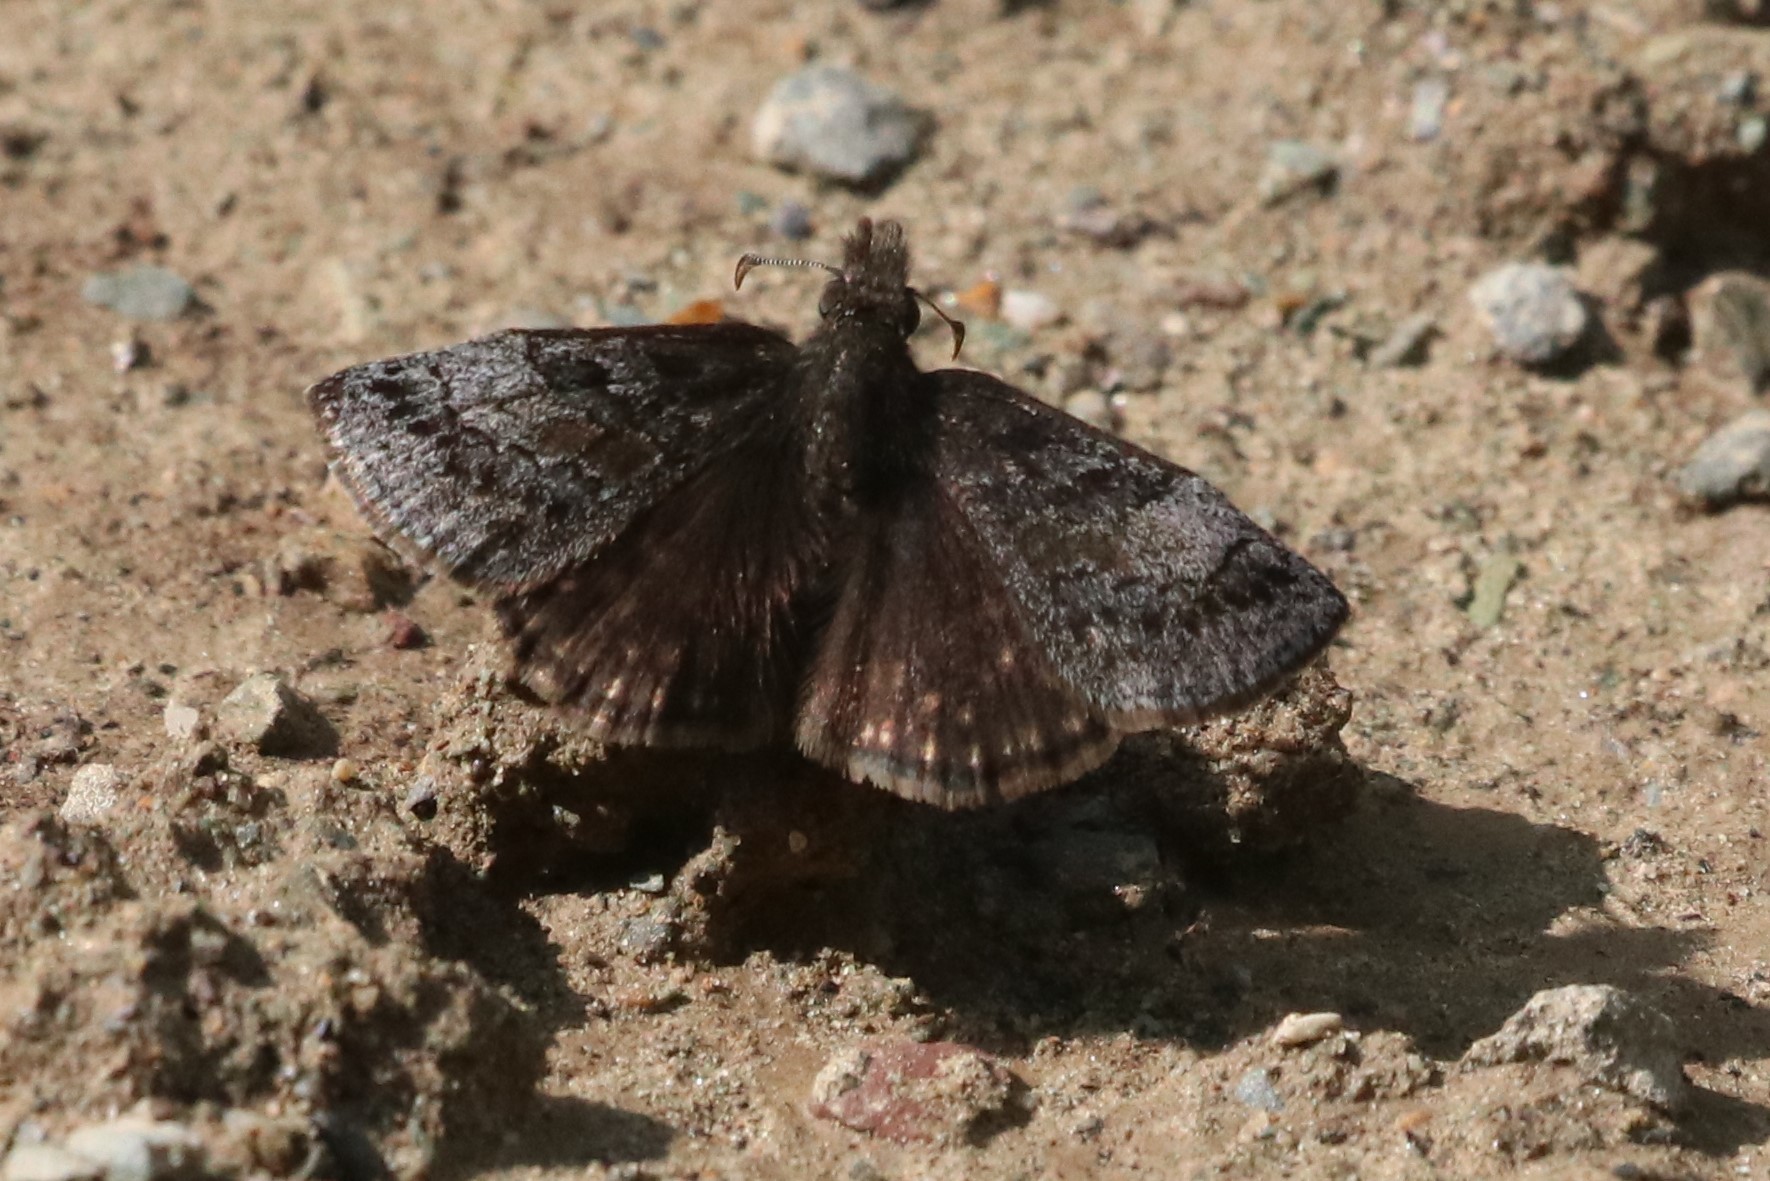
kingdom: Animalia
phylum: Arthropoda
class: Insecta
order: Lepidoptera
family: Hesperiidae
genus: Erynnis
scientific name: Erynnis icelus
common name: Dreamy duskywing
